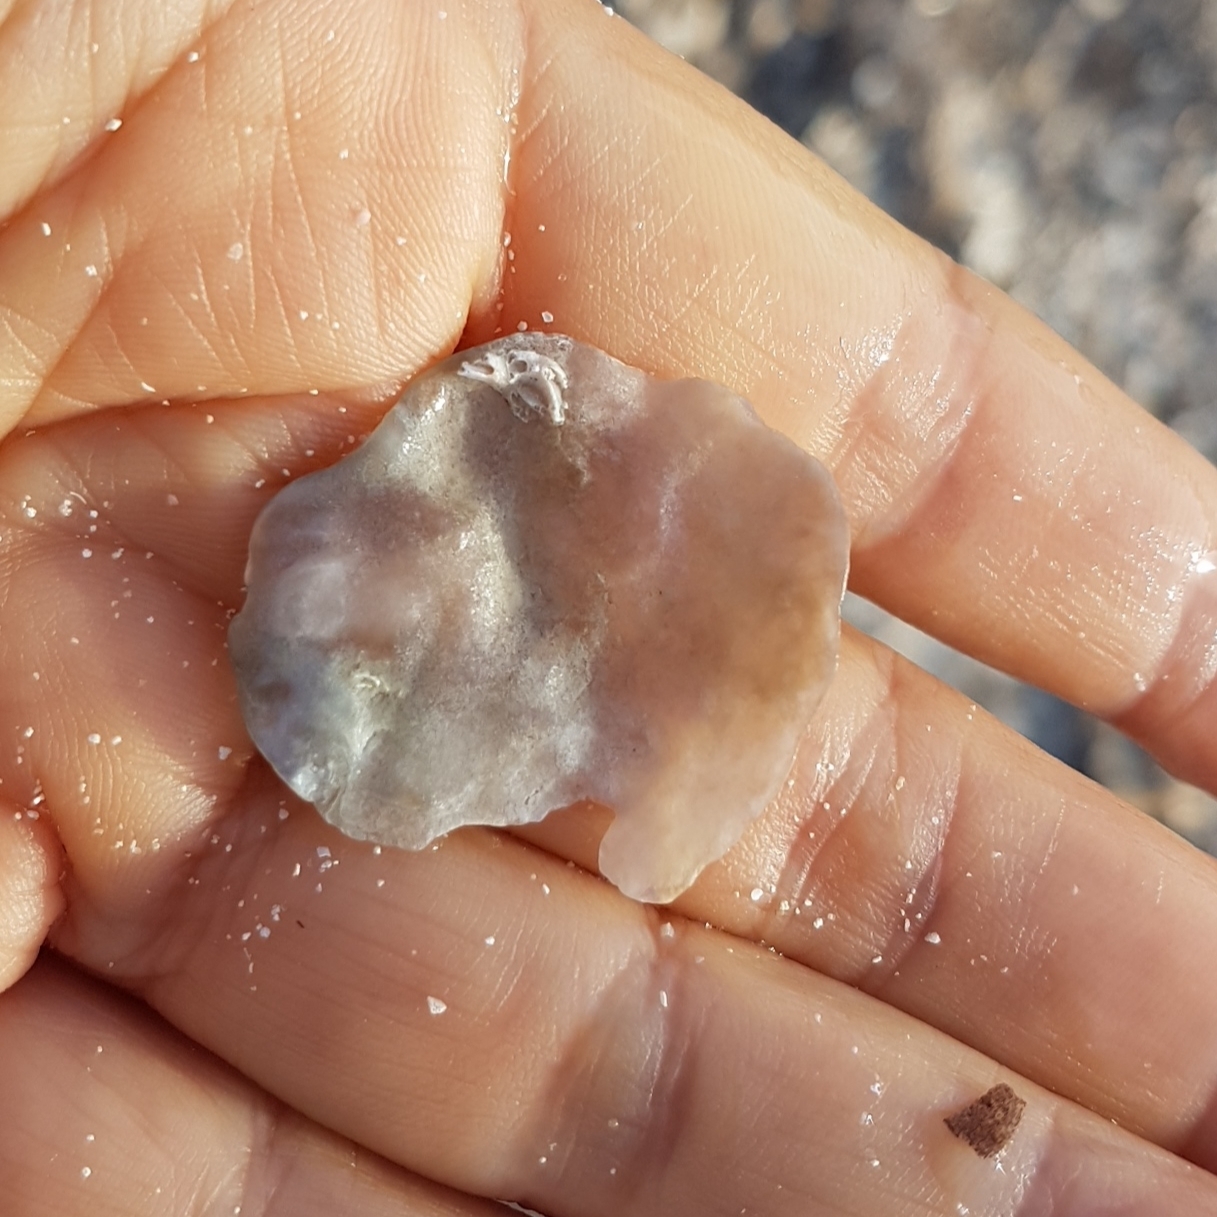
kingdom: Animalia
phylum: Mollusca
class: Bivalvia
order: Pectinida
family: Anomiidae
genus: Anomia
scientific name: Anomia ephippium
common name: Saddle oyster
